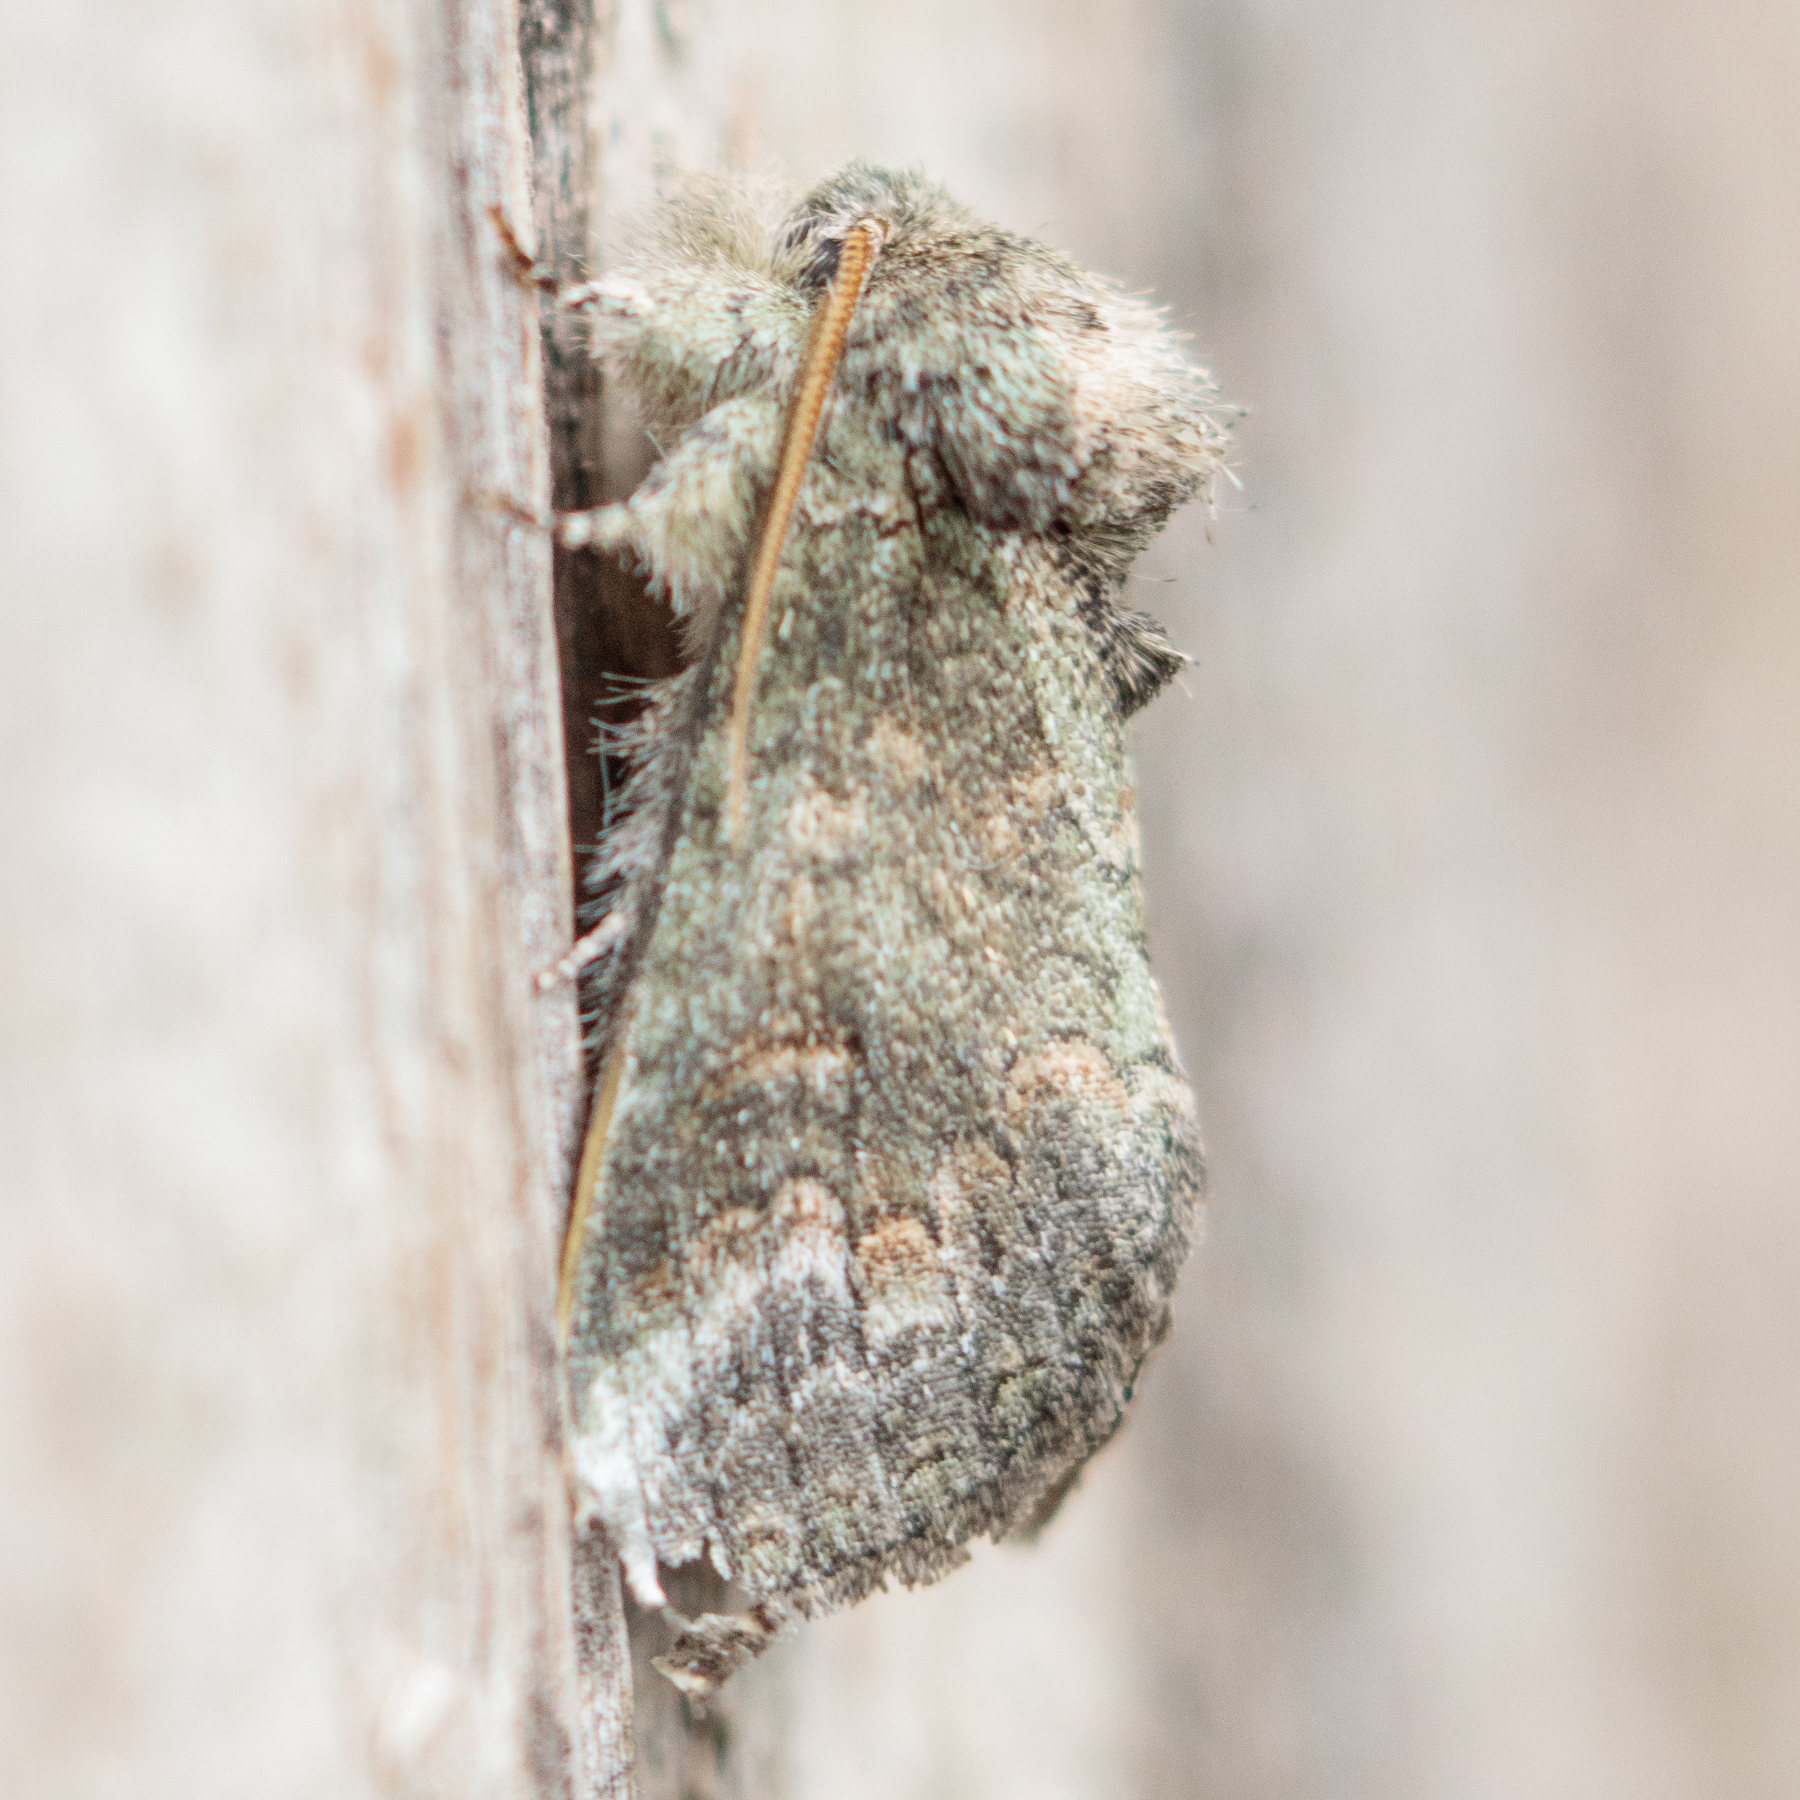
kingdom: Animalia
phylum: Arthropoda
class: Insecta
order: Lepidoptera
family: Notodontidae
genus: Rifargia
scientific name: Rifargia
